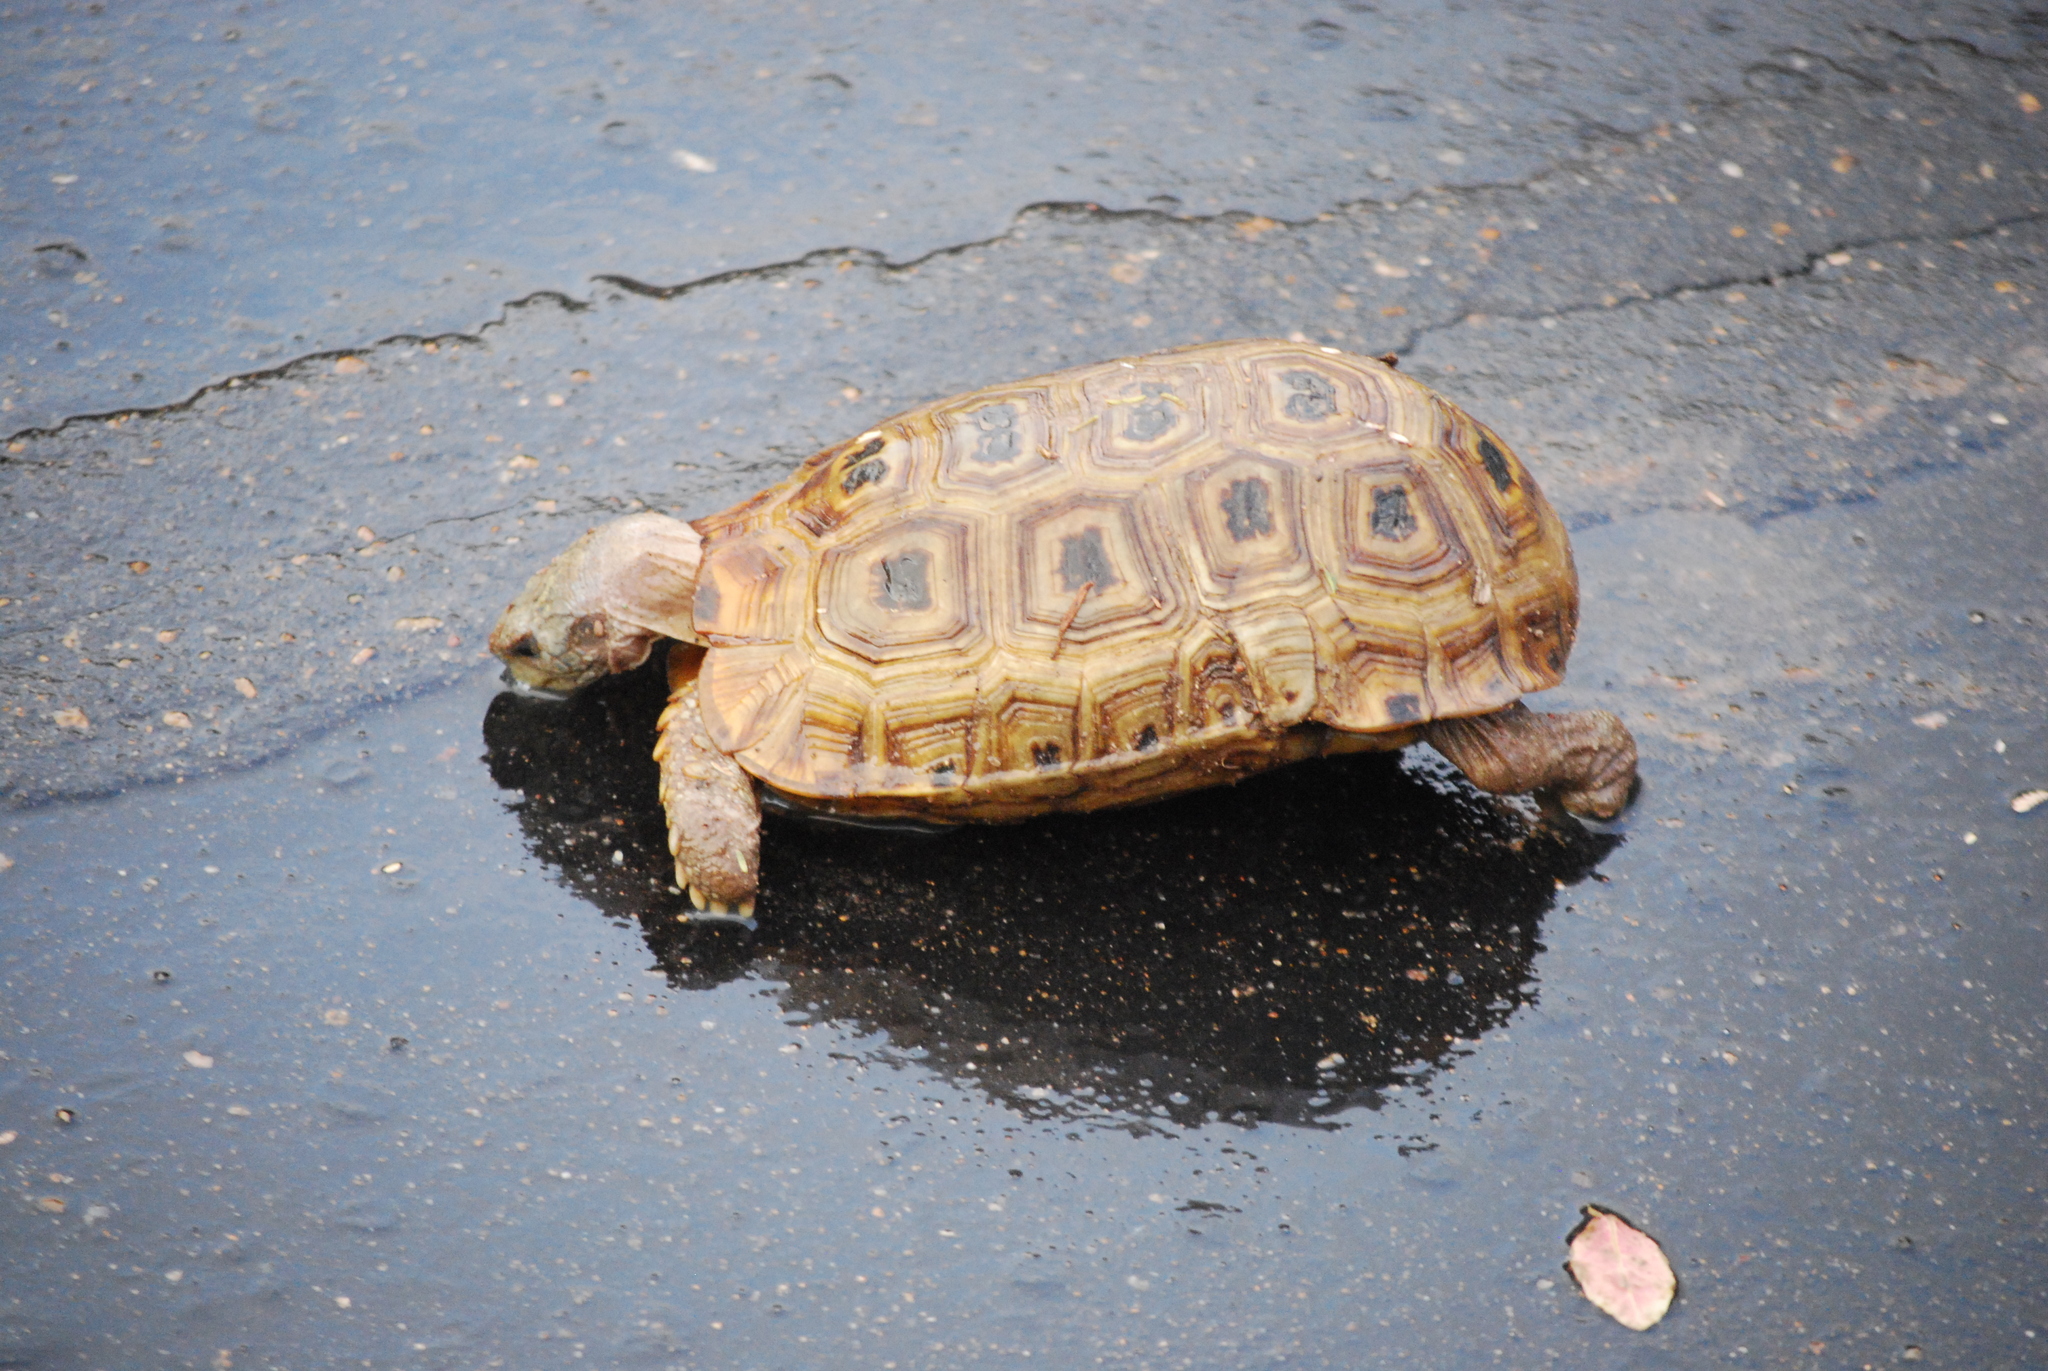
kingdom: Animalia
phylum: Chordata
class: Testudines
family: Testudinidae
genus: Kinixys
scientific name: Kinixys spekii
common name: Speke's hingeback tortoise
